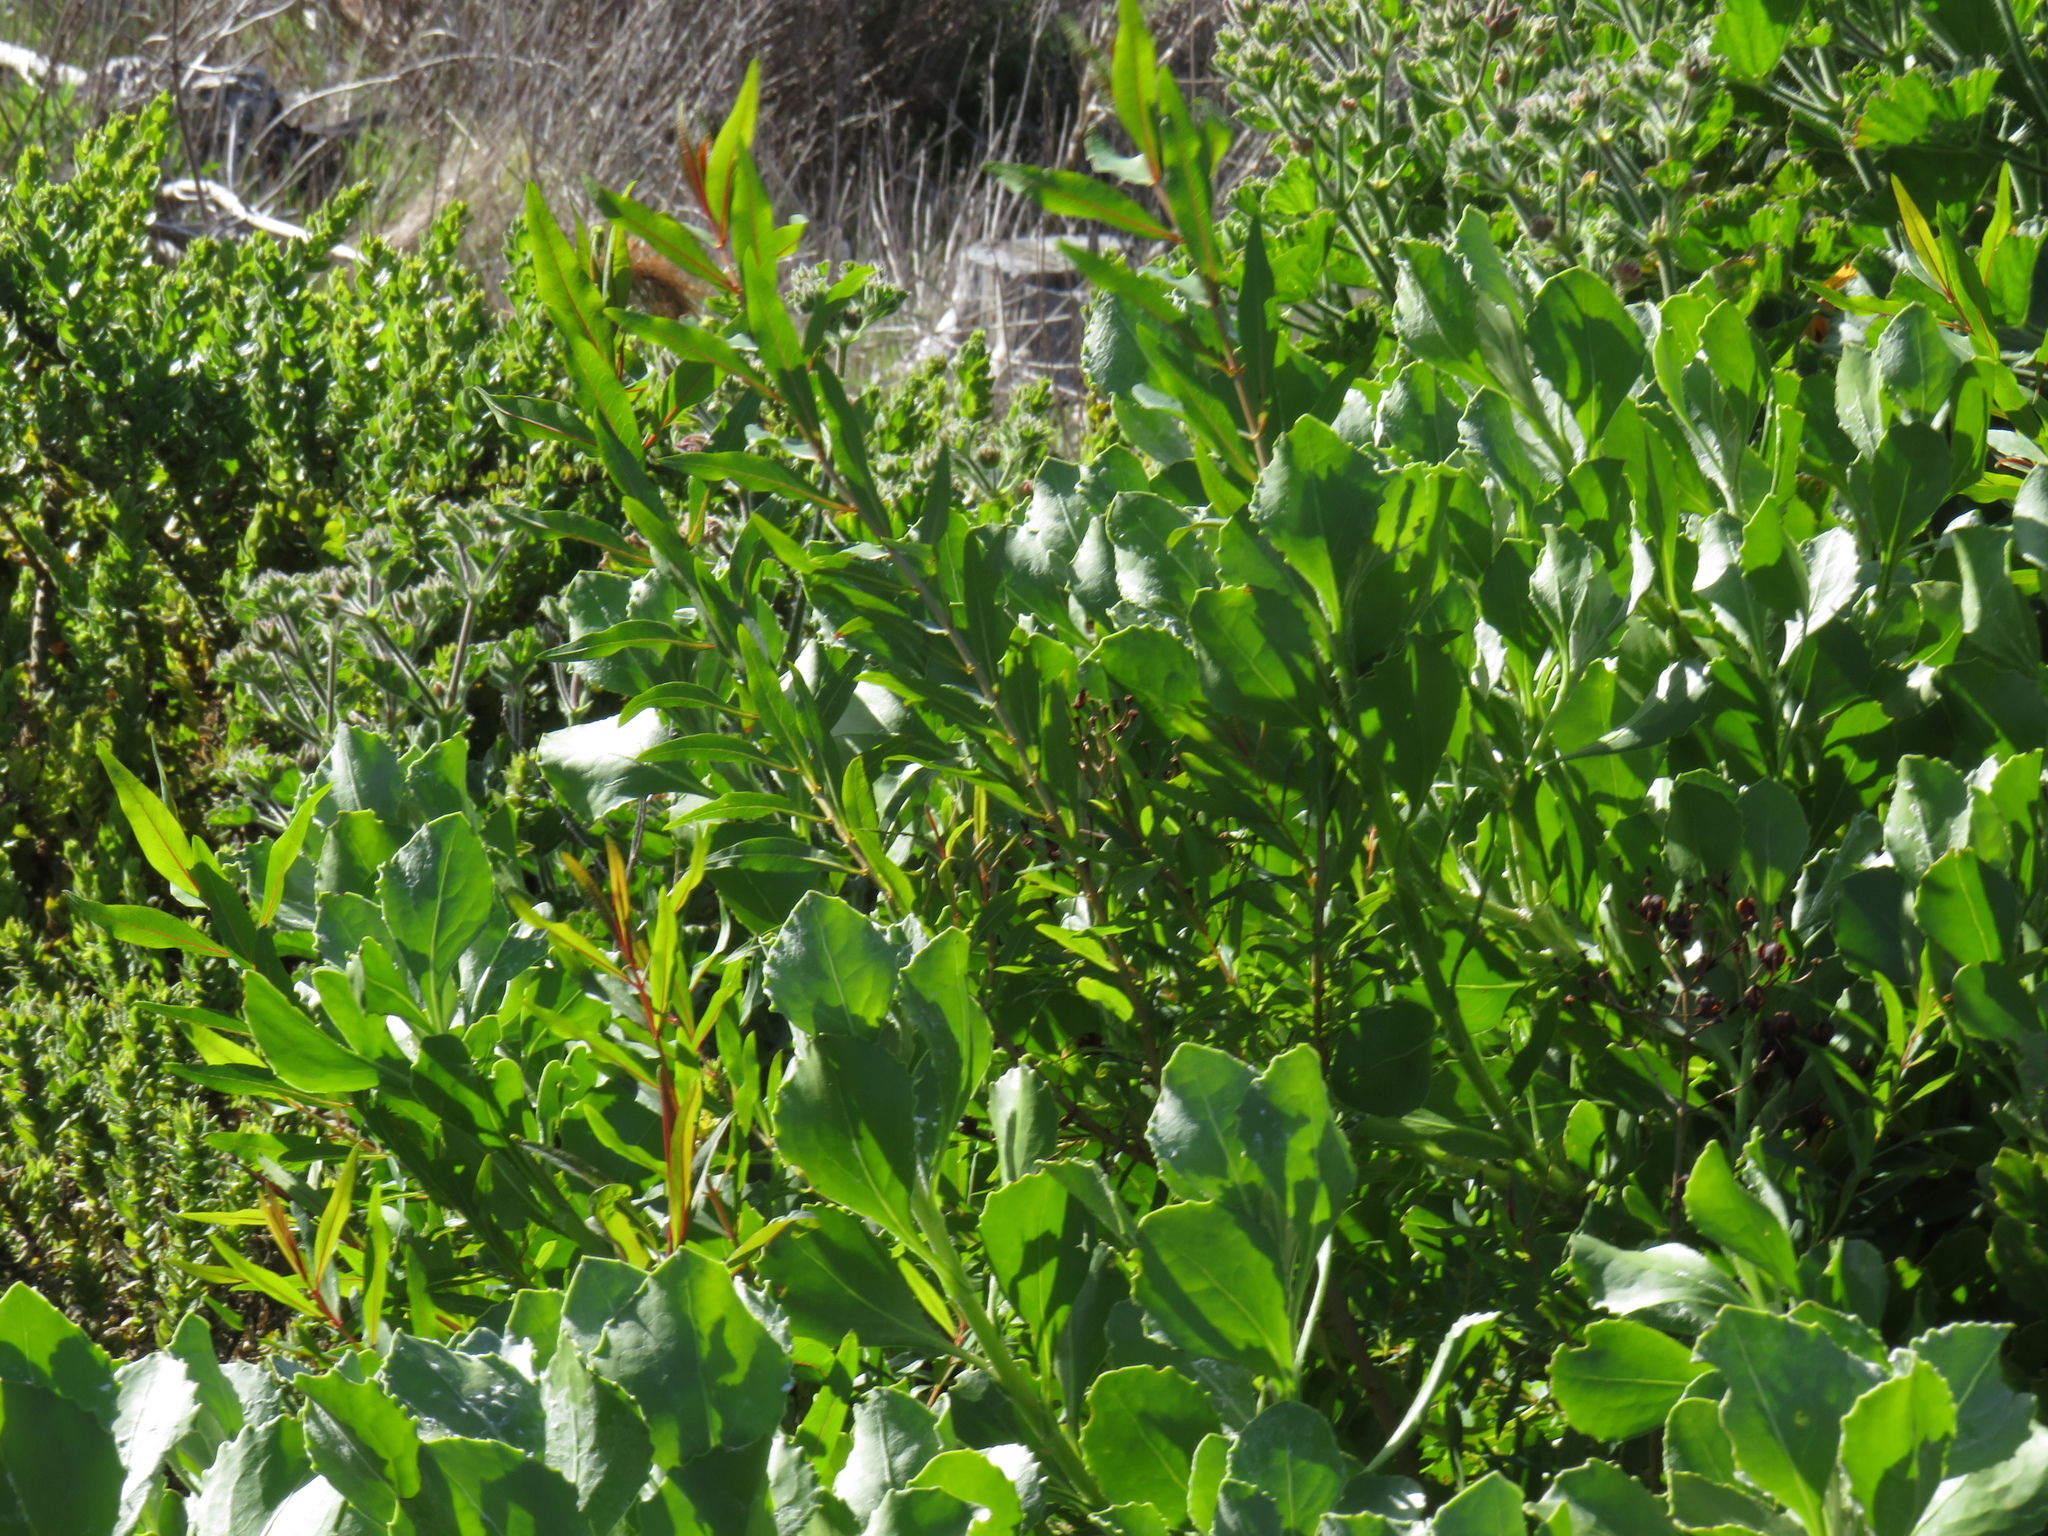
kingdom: Plantae
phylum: Tracheophyta
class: Magnoliopsida
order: Malpighiales
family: Hypericaceae
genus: Hypericum
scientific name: Hypericum canariense
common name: Canary island st. johnswort
